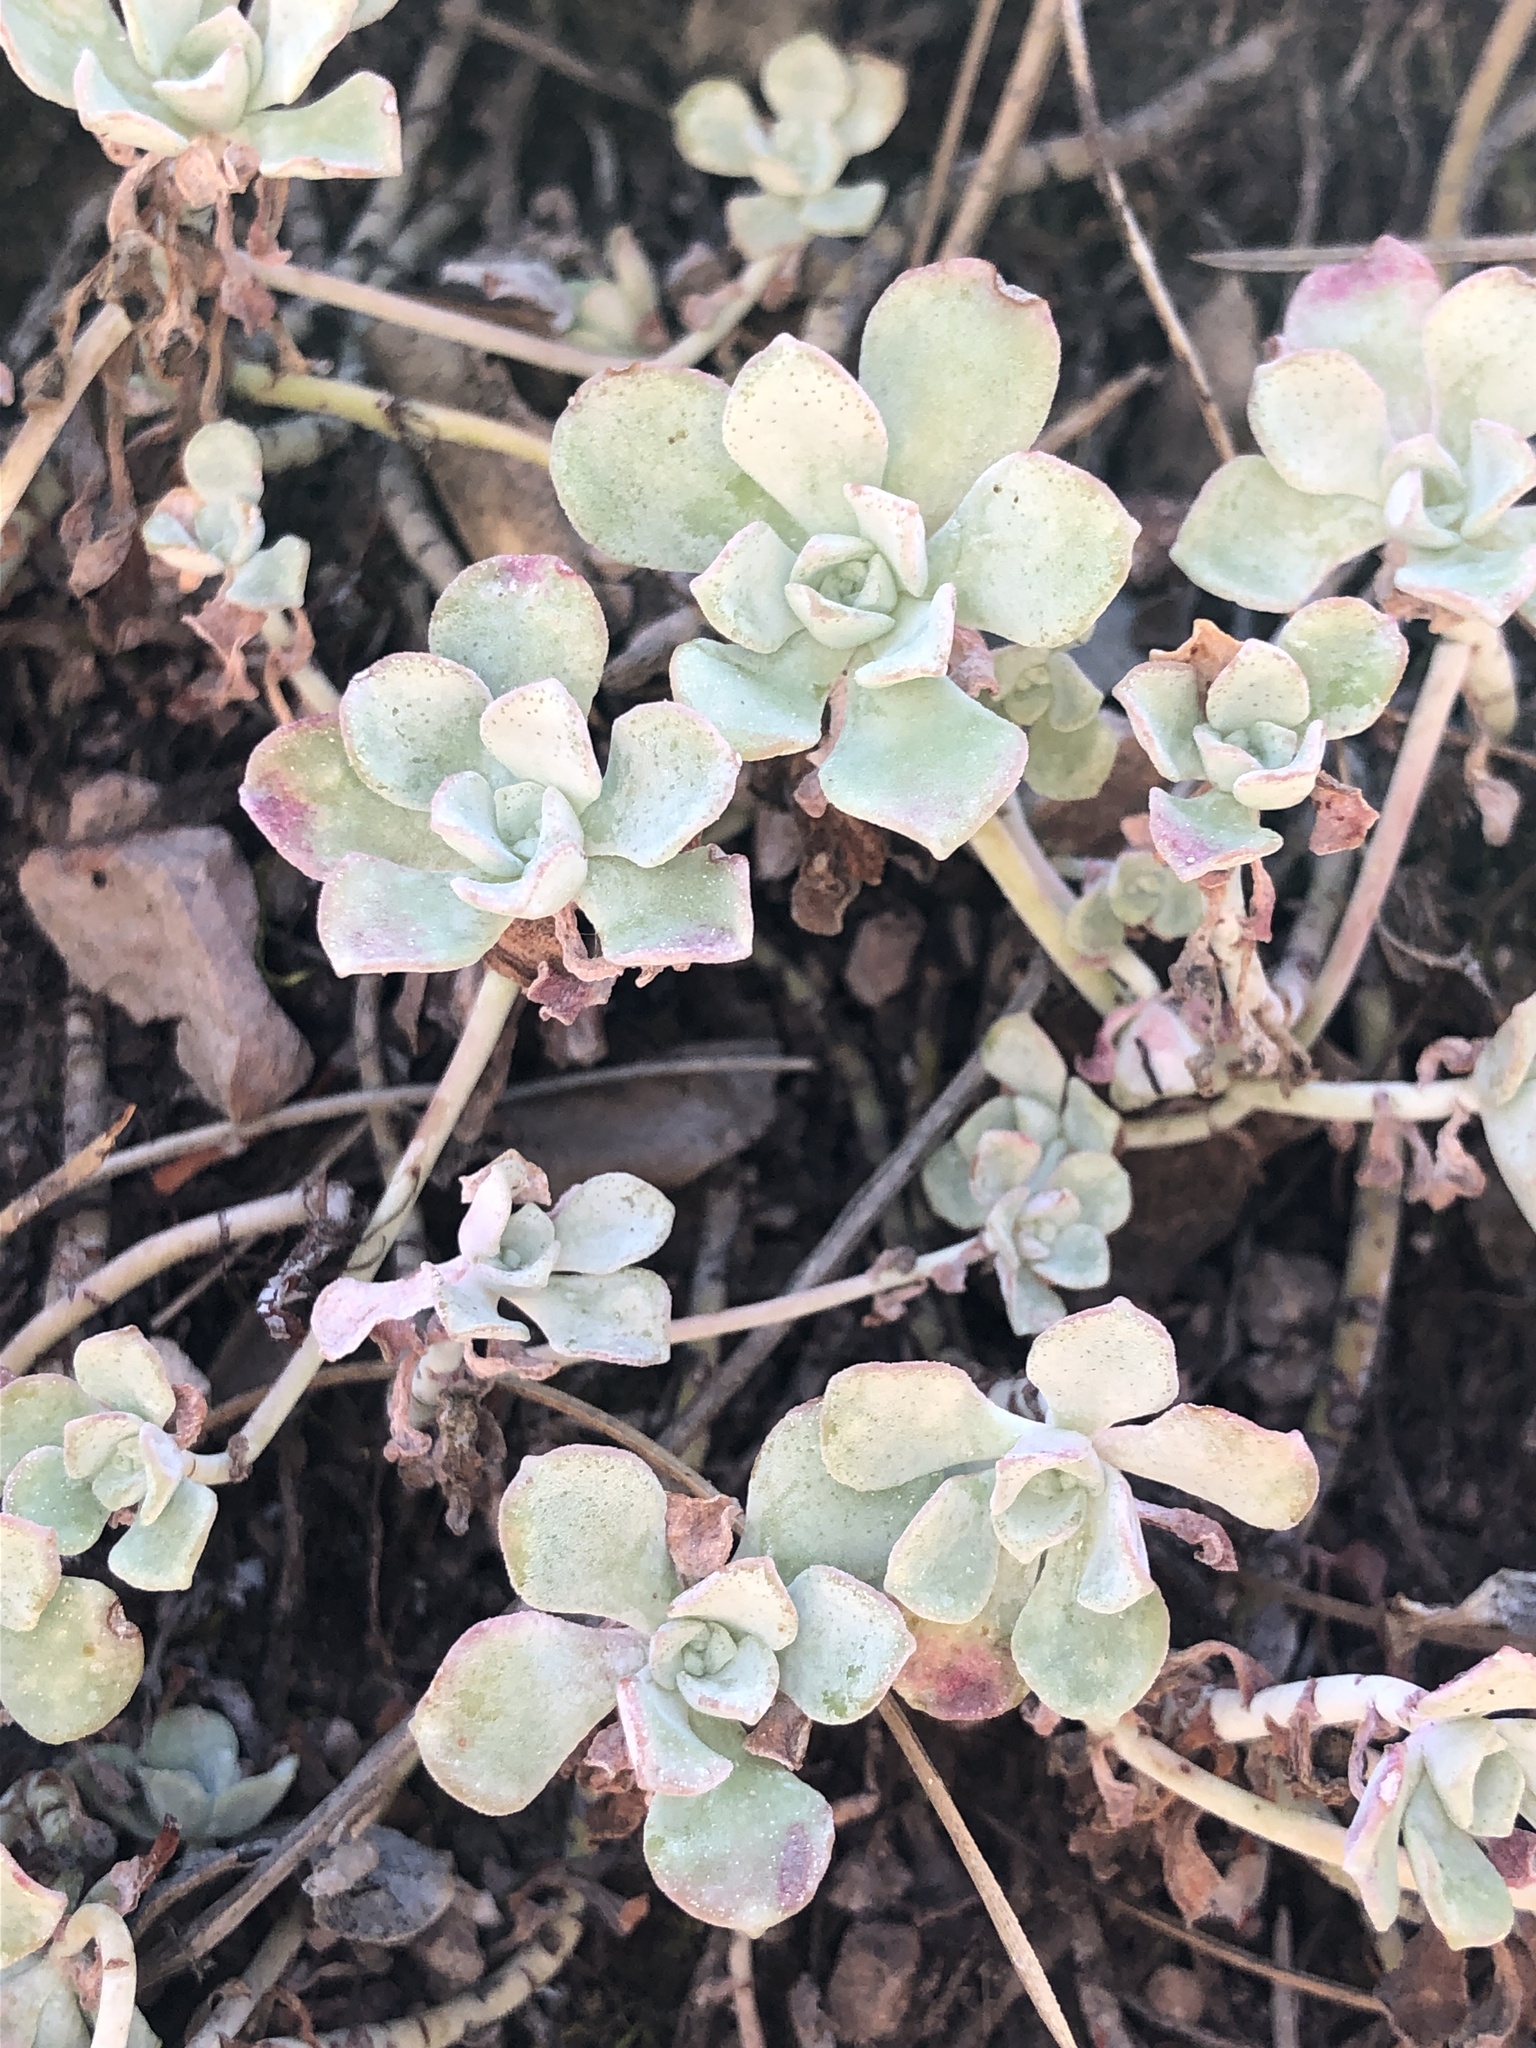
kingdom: Plantae
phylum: Tracheophyta
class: Magnoliopsida
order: Saxifragales
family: Crassulaceae
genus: Sedum
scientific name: Sedum spathulifolium
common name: Colorado stonecrop
